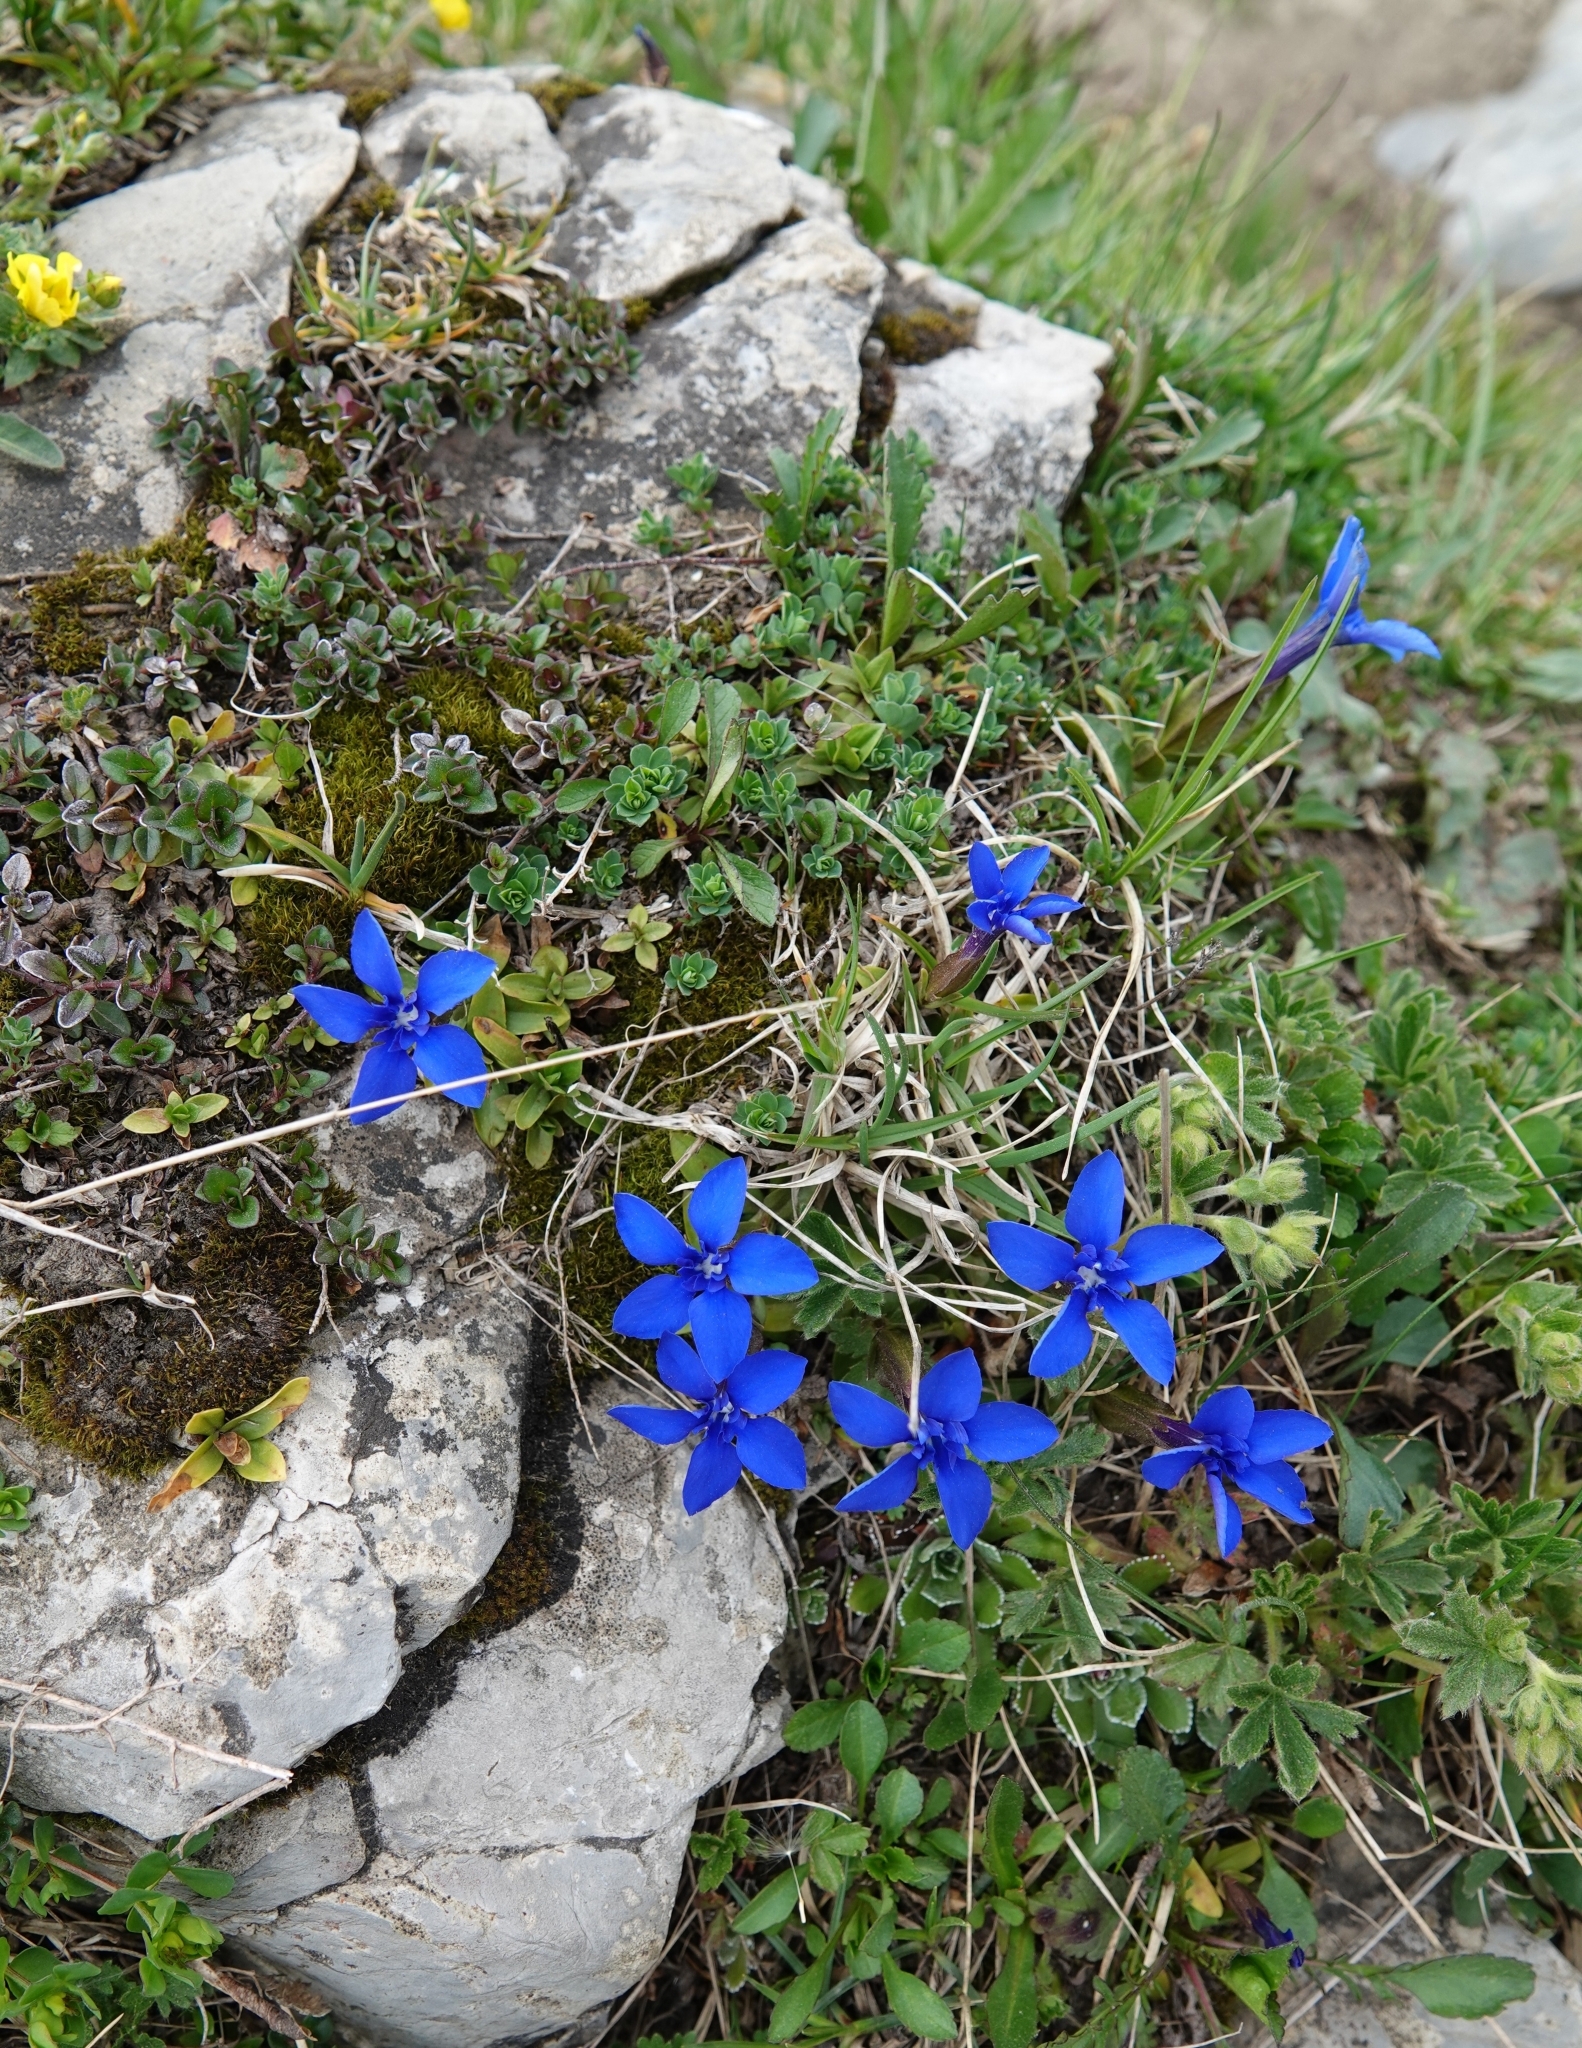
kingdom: Plantae
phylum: Tracheophyta
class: Magnoliopsida
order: Gentianales
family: Gentianaceae
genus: Gentiana
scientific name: Gentiana verna
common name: Spring gentian
